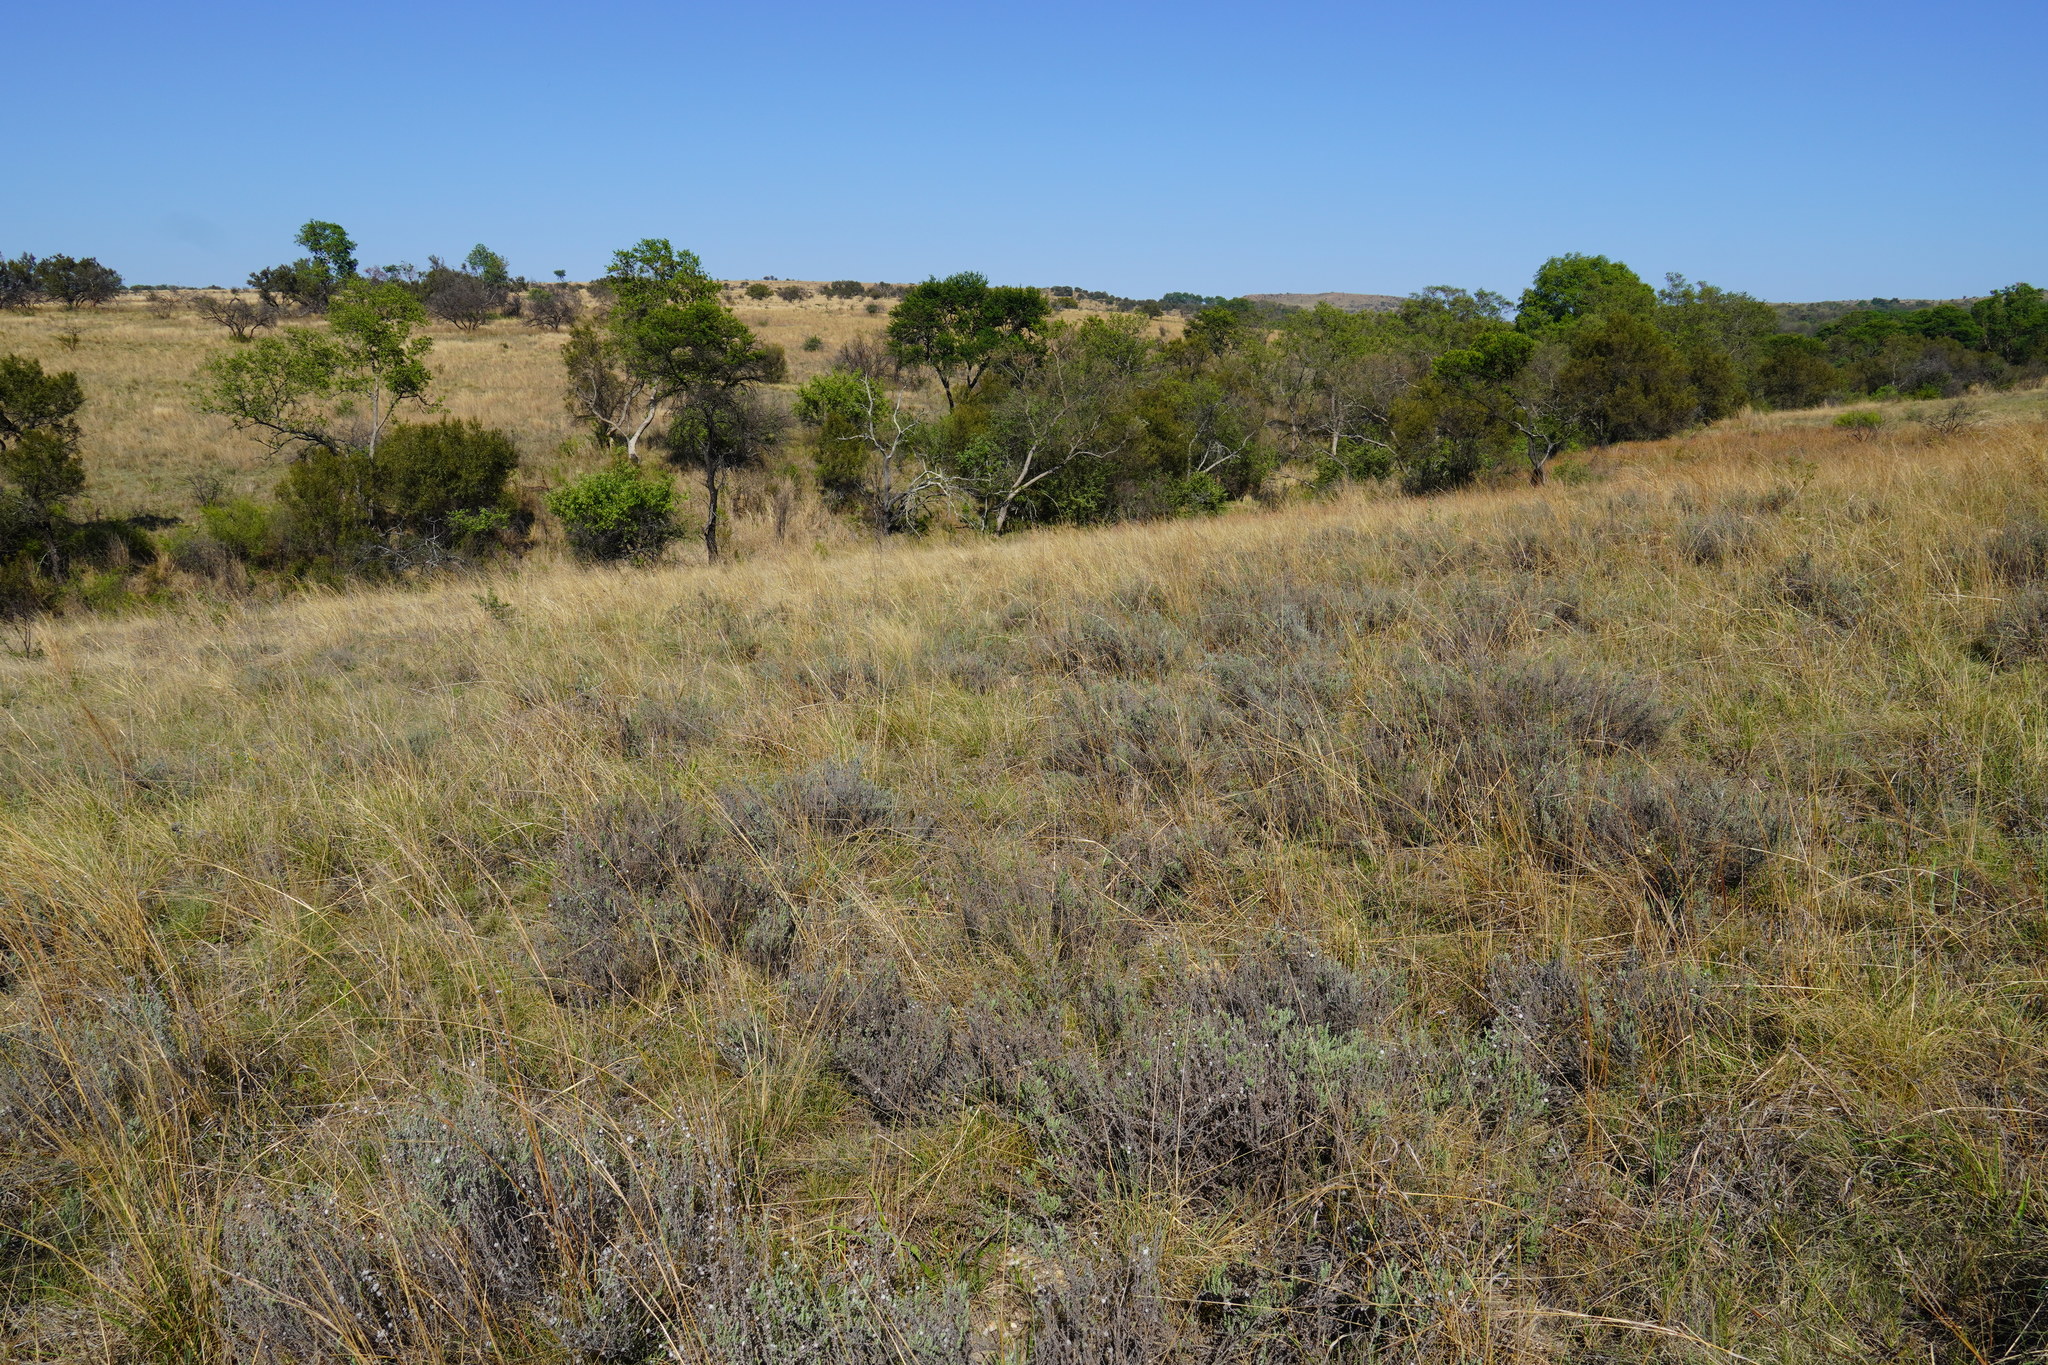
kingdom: Plantae
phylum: Tracheophyta
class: Magnoliopsida
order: Asterales
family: Asteraceae
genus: Seriphium
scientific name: Seriphium plumosum
